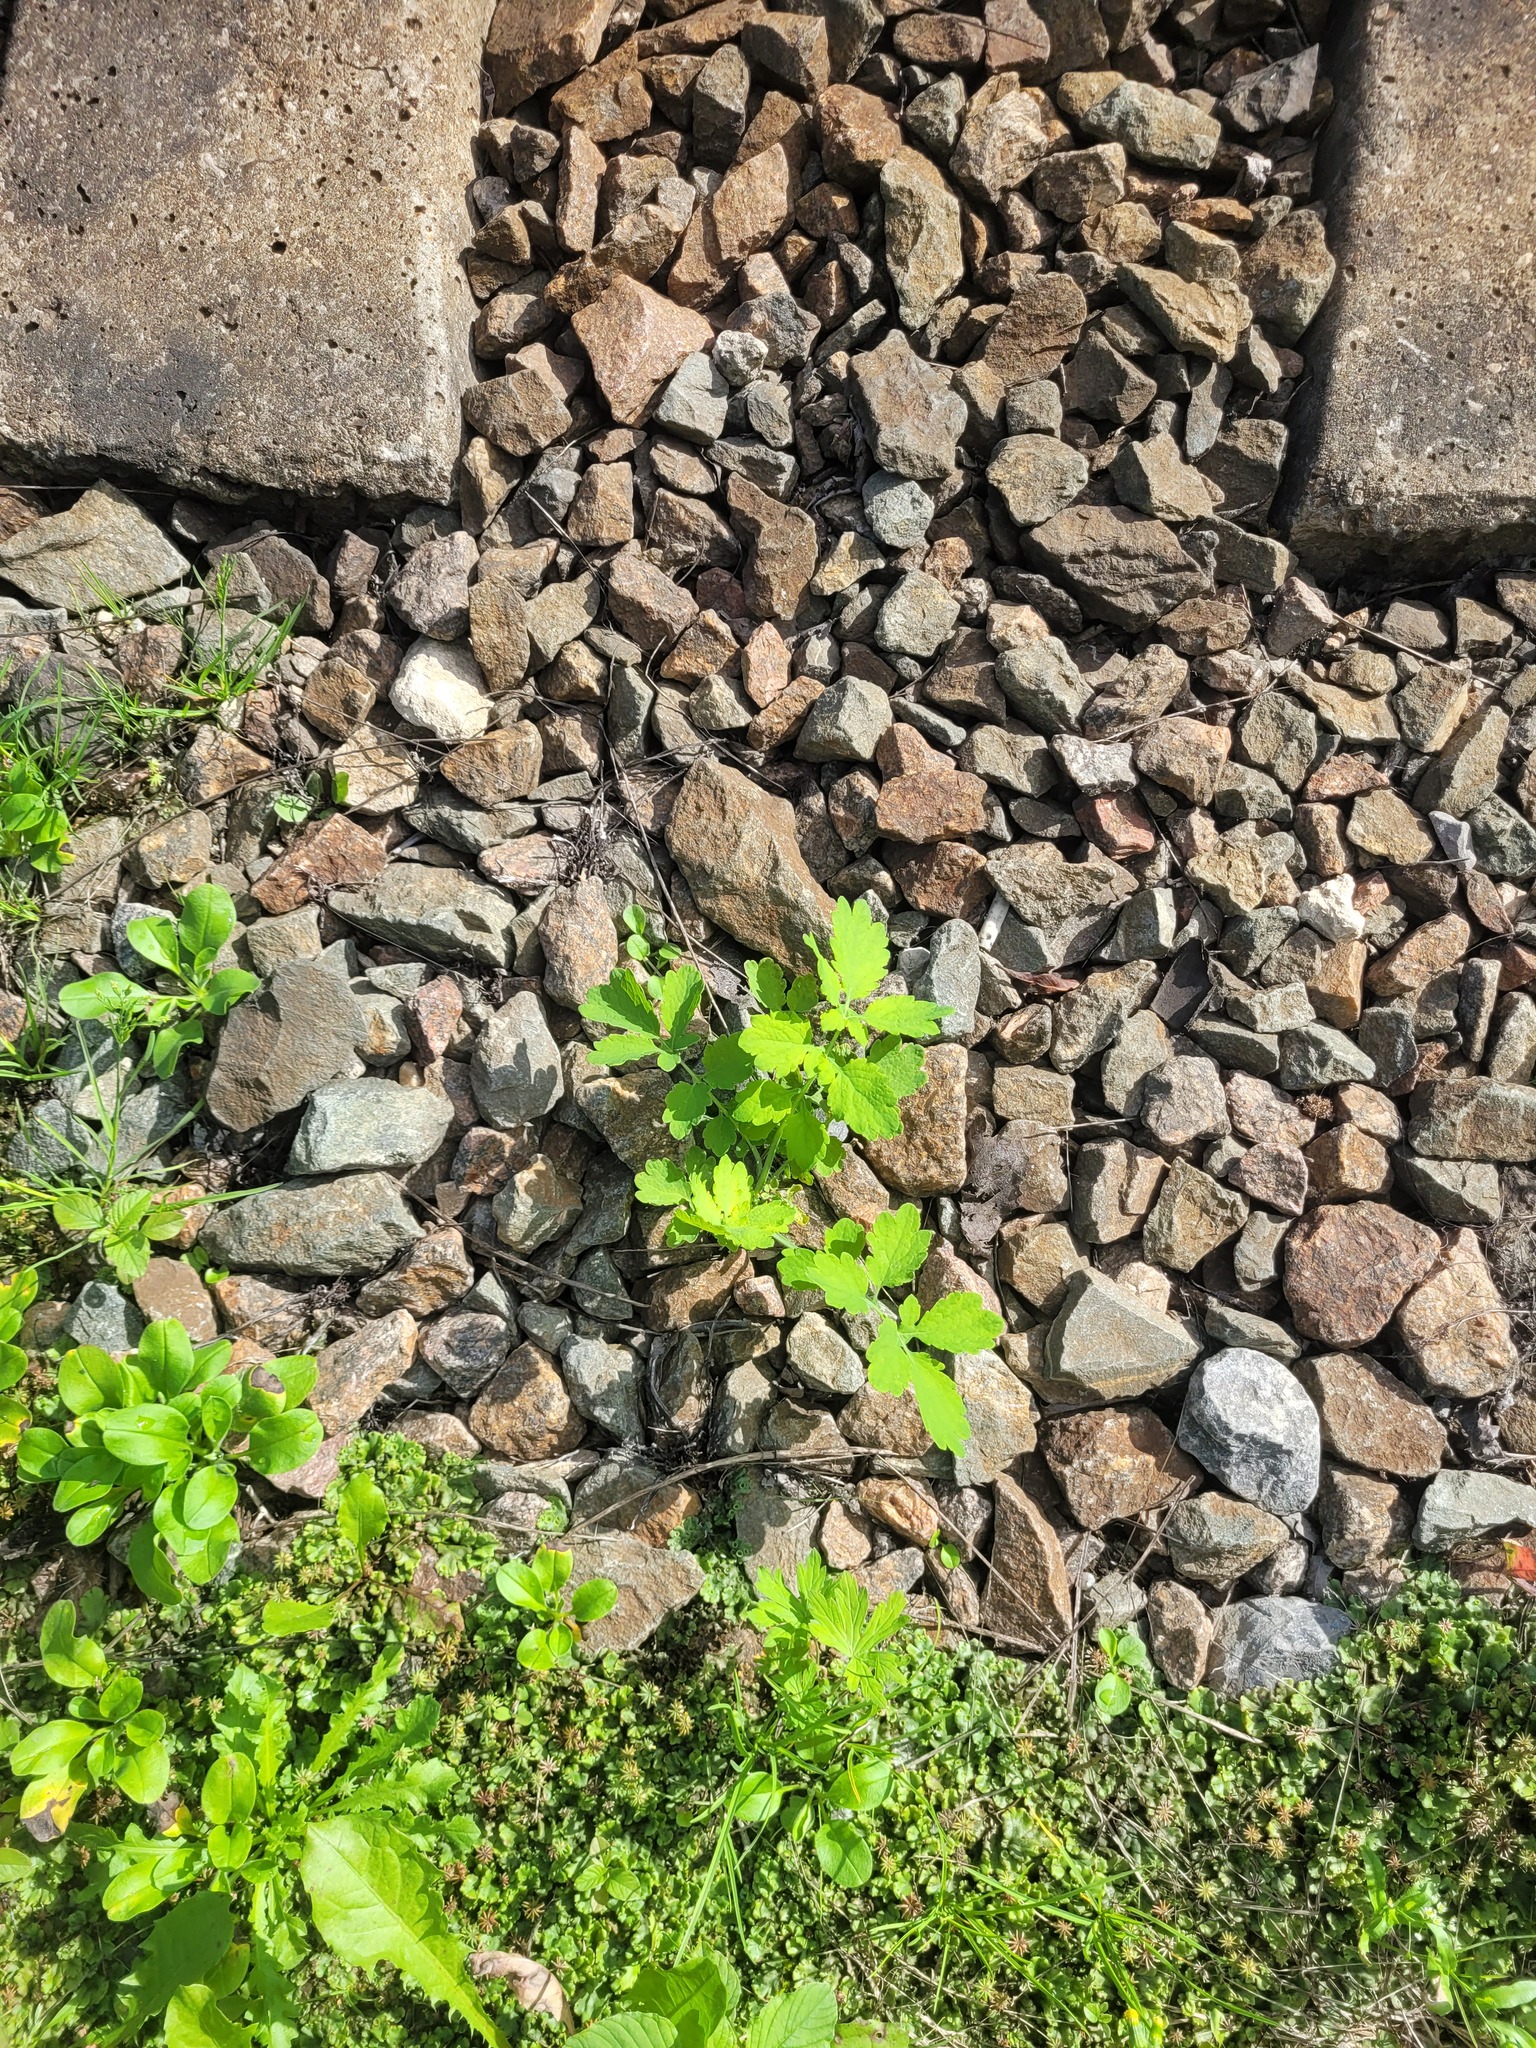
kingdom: Plantae
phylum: Tracheophyta
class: Magnoliopsida
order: Ranunculales
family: Papaveraceae
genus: Chelidonium
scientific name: Chelidonium majus
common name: Greater celandine
